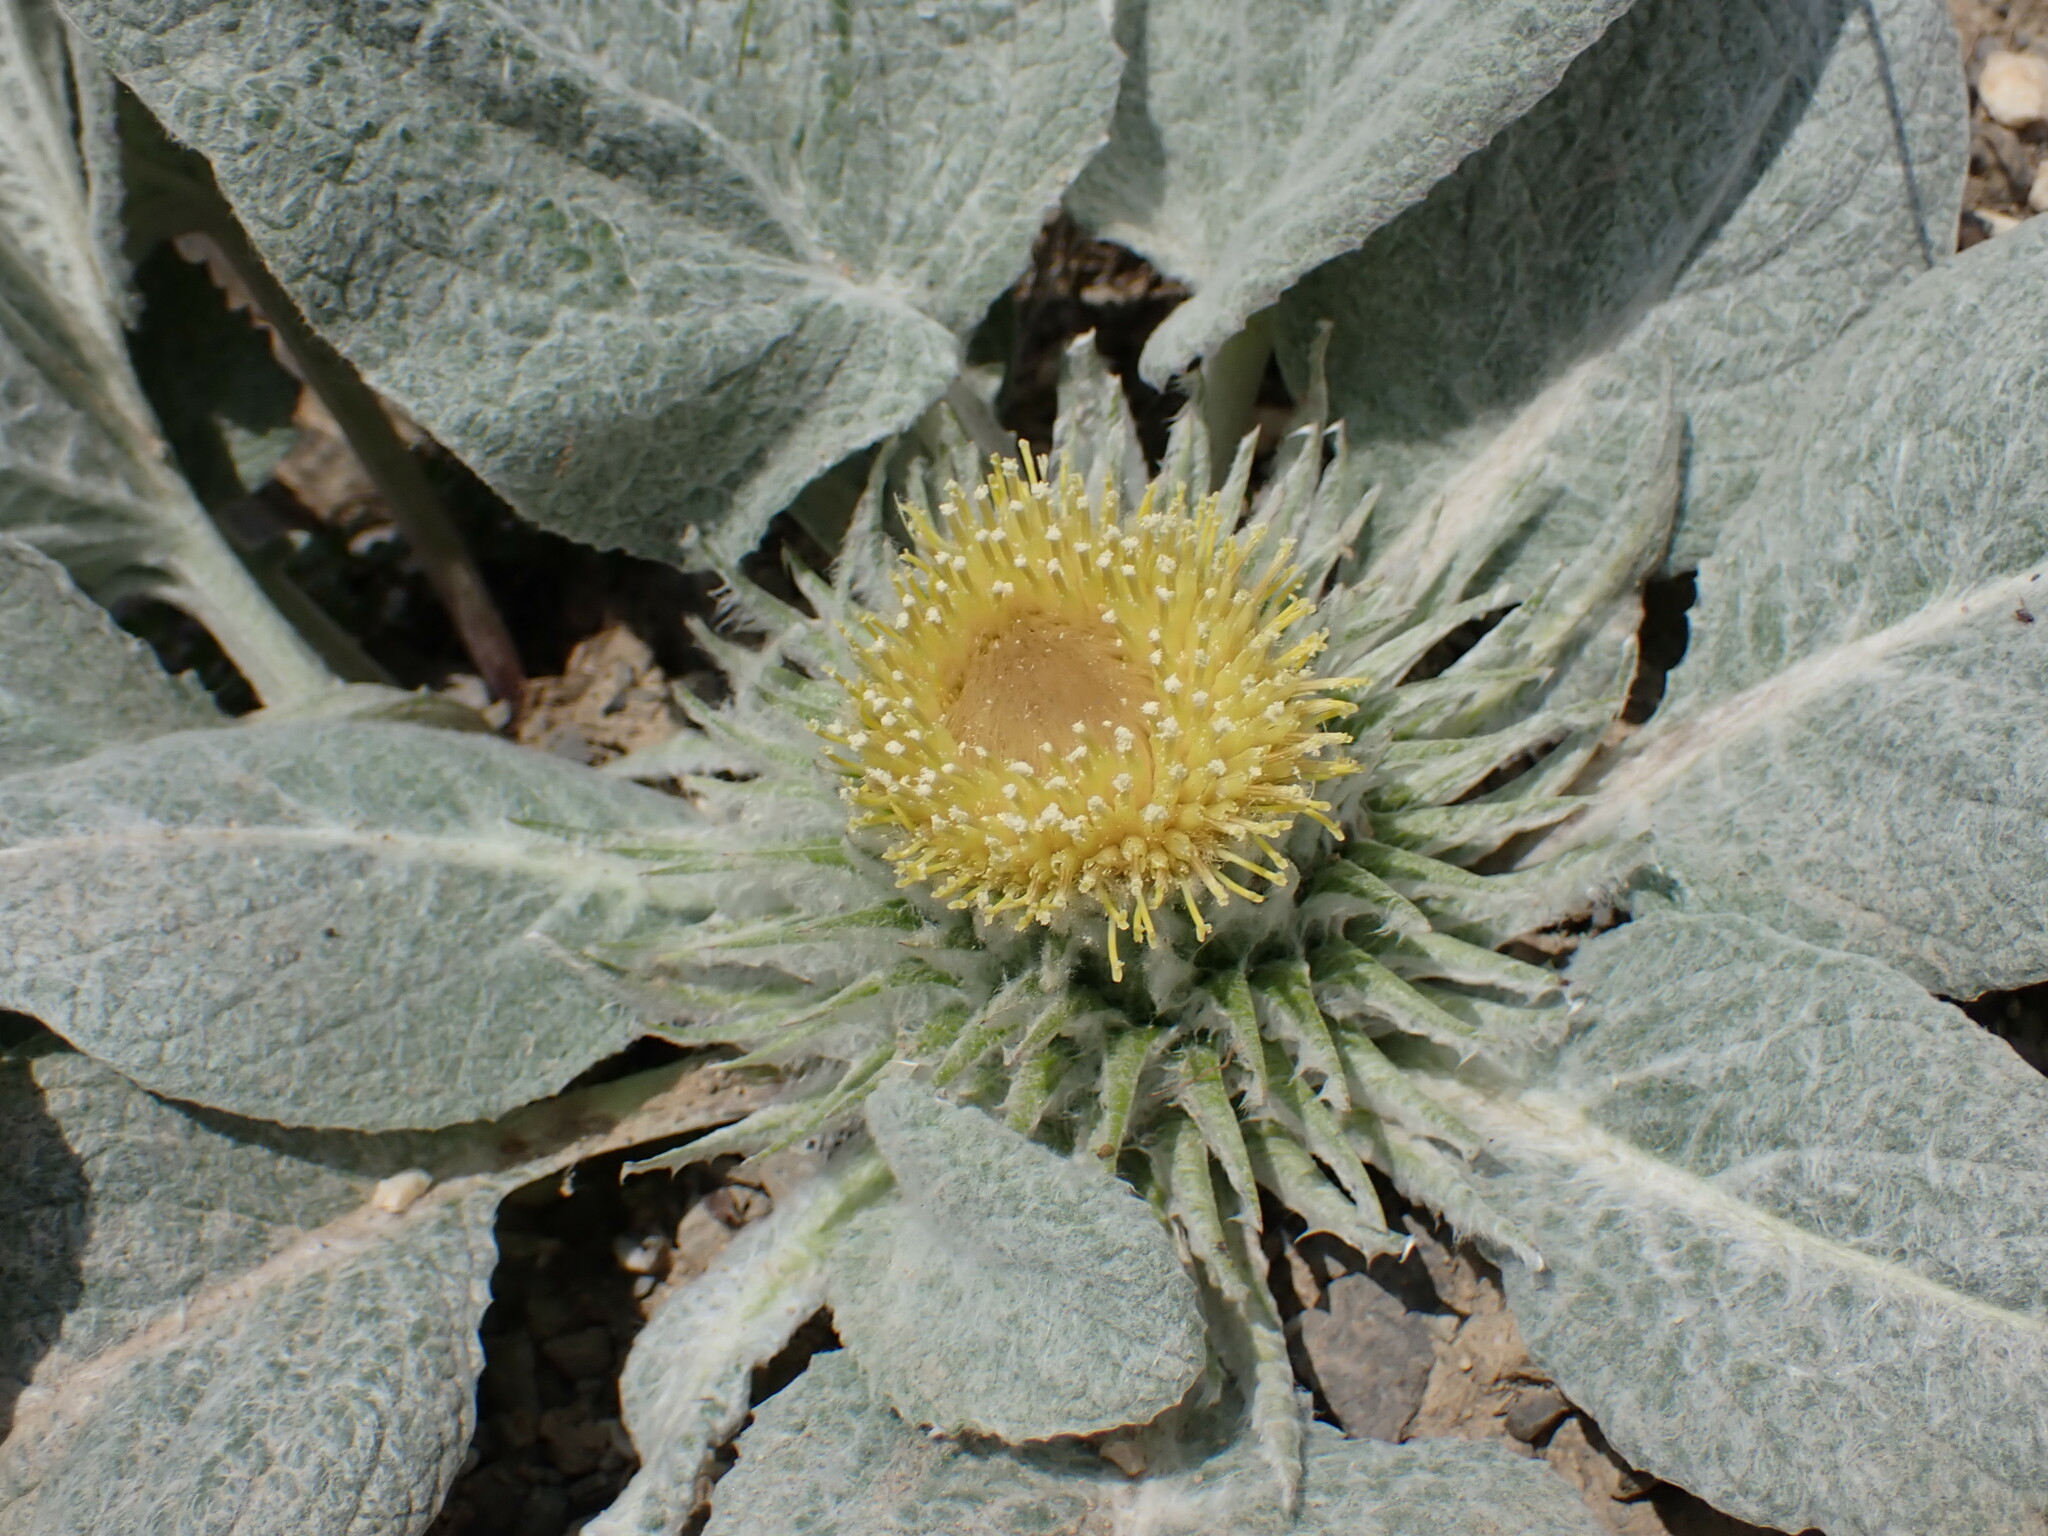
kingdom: Plantae
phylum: Tracheophyta
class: Magnoliopsida
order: Asterales
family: Asteraceae
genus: Berardia
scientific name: Berardia lanuginosa
